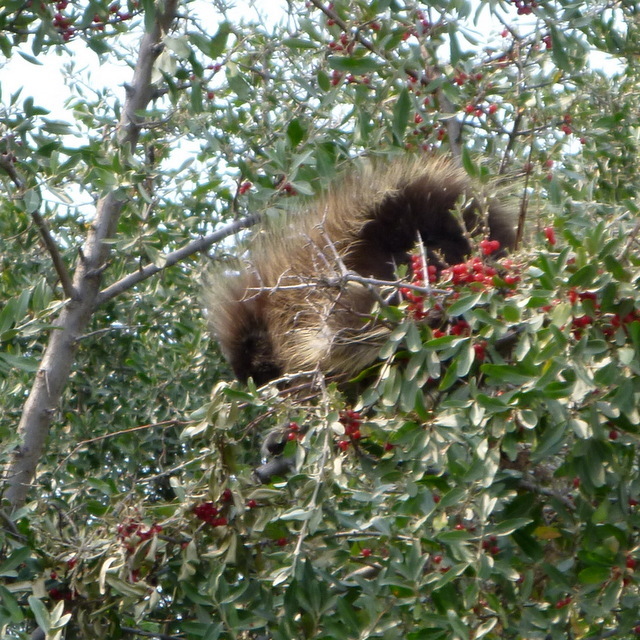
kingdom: Animalia
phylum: Chordata
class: Mammalia
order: Rodentia
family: Erethizontidae
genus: Erethizon
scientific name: Erethizon dorsatus
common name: North american porcupine
